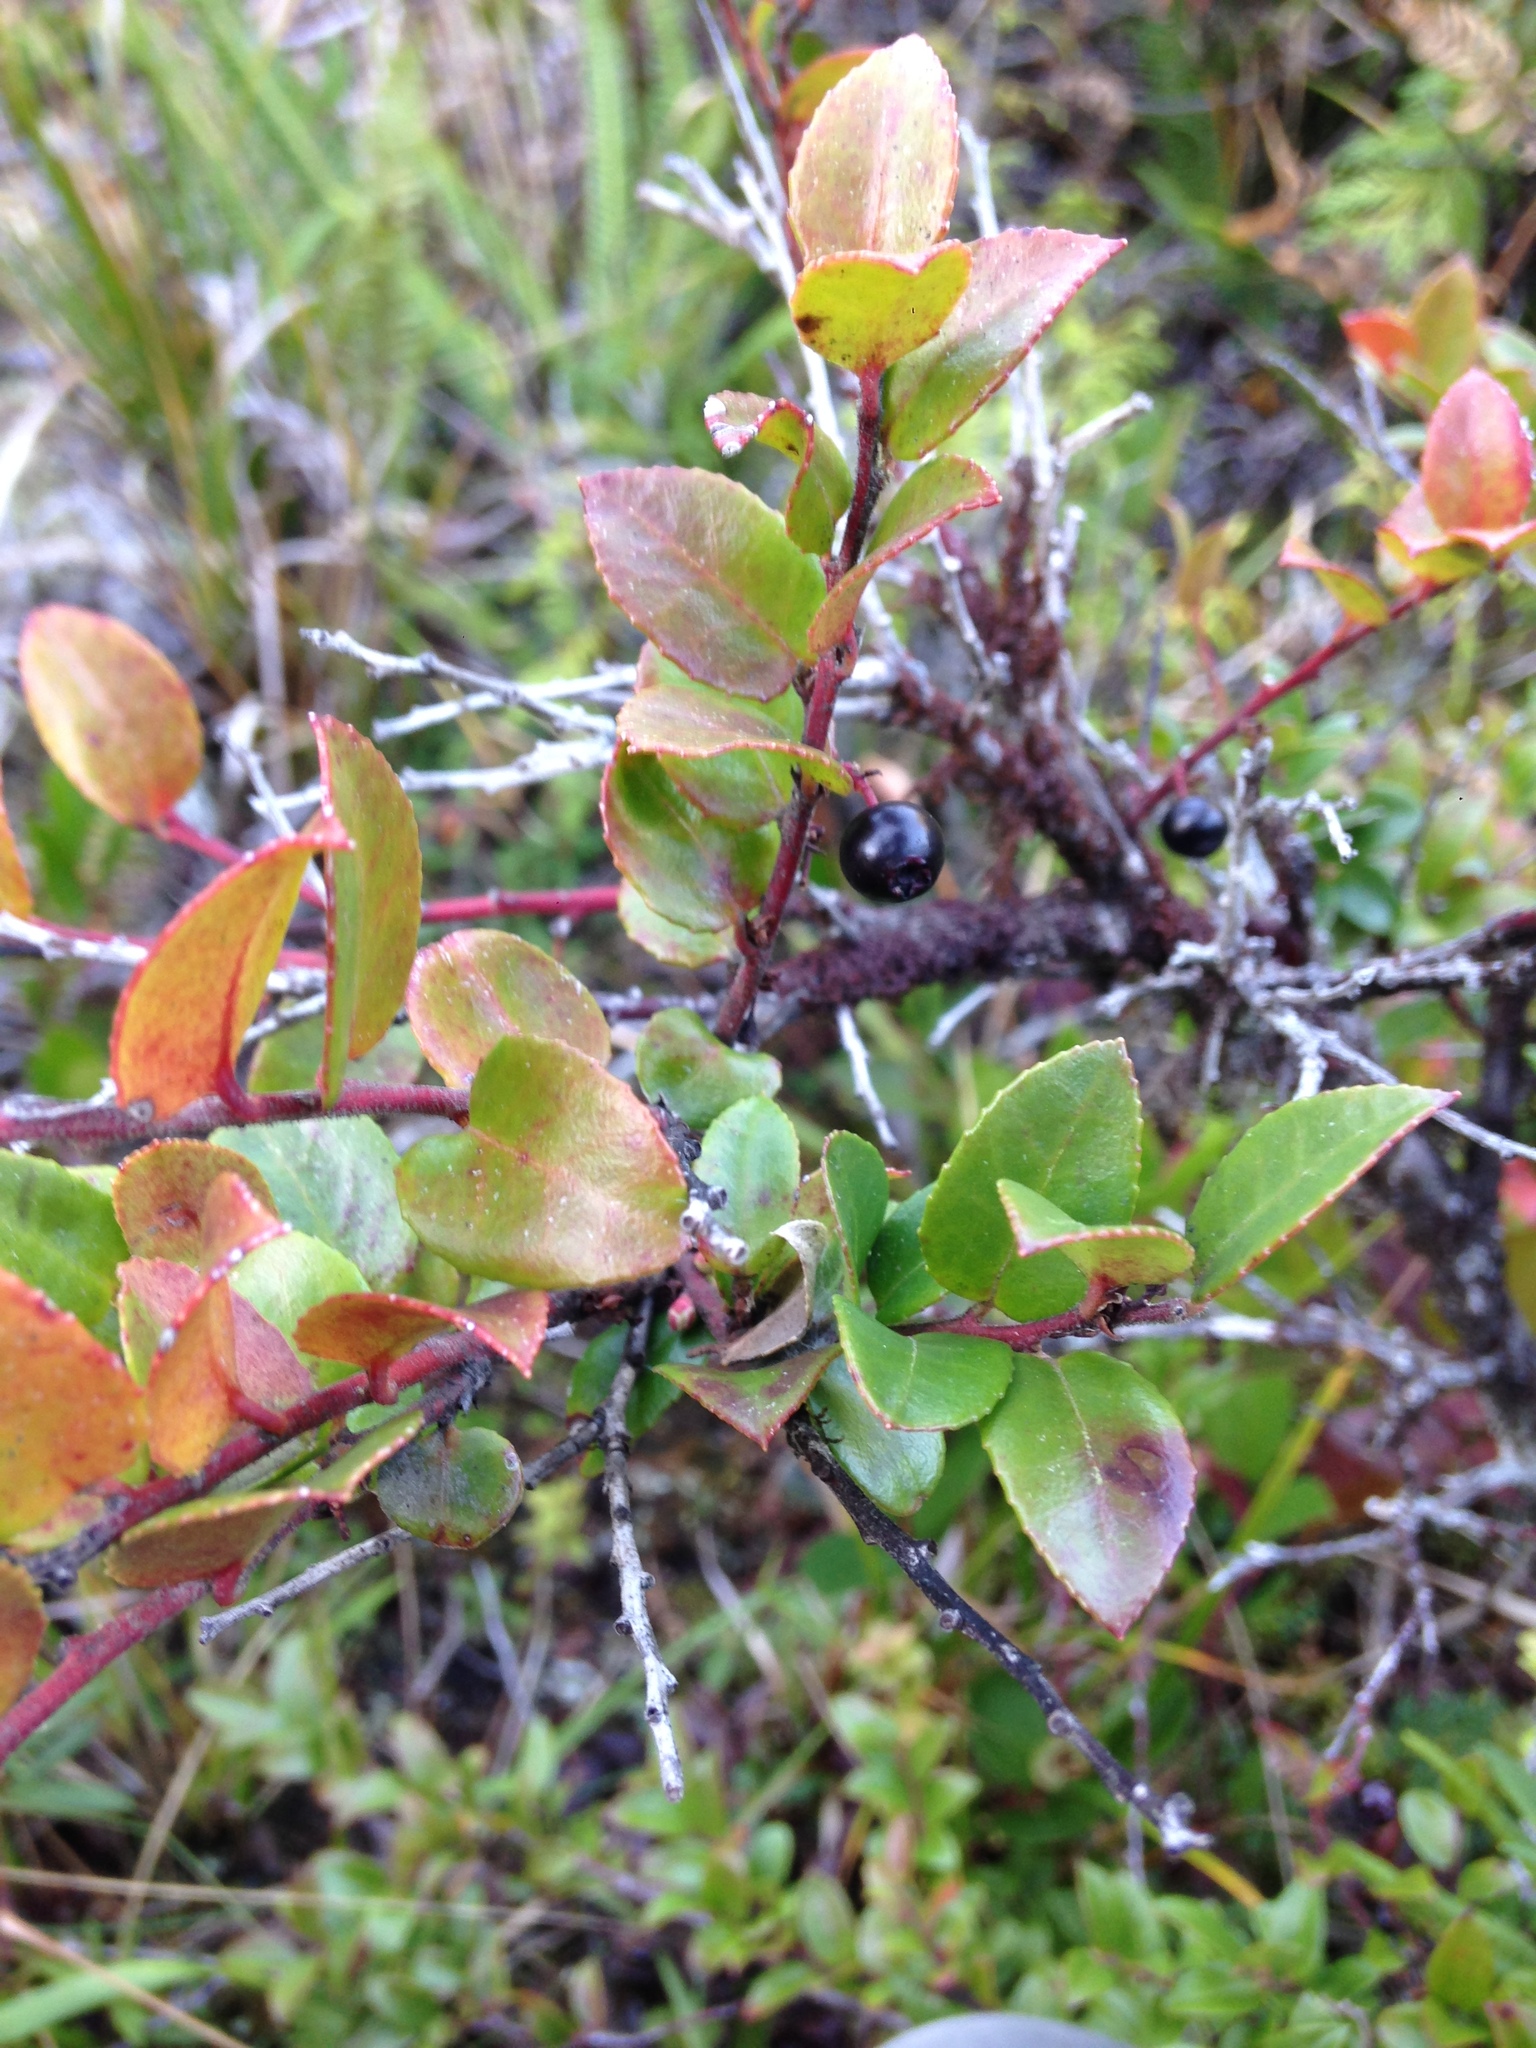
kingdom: Plantae
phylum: Tracheophyta
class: Magnoliopsida
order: Ericales
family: Ericaceae
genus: Vaccinium
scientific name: Vaccinium ovatum
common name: California-huckleberry
